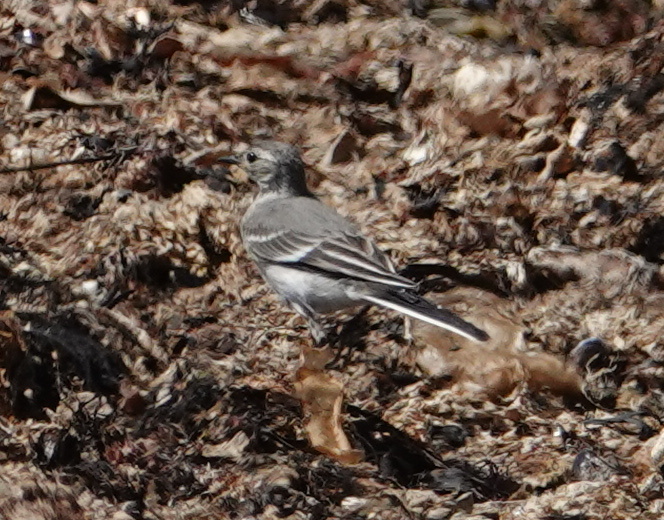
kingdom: Animalia
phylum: Chordata
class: Aves
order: Passeriformes
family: Motacillidae
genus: Motacilla
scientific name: Motacilla alba
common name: White wagtail
